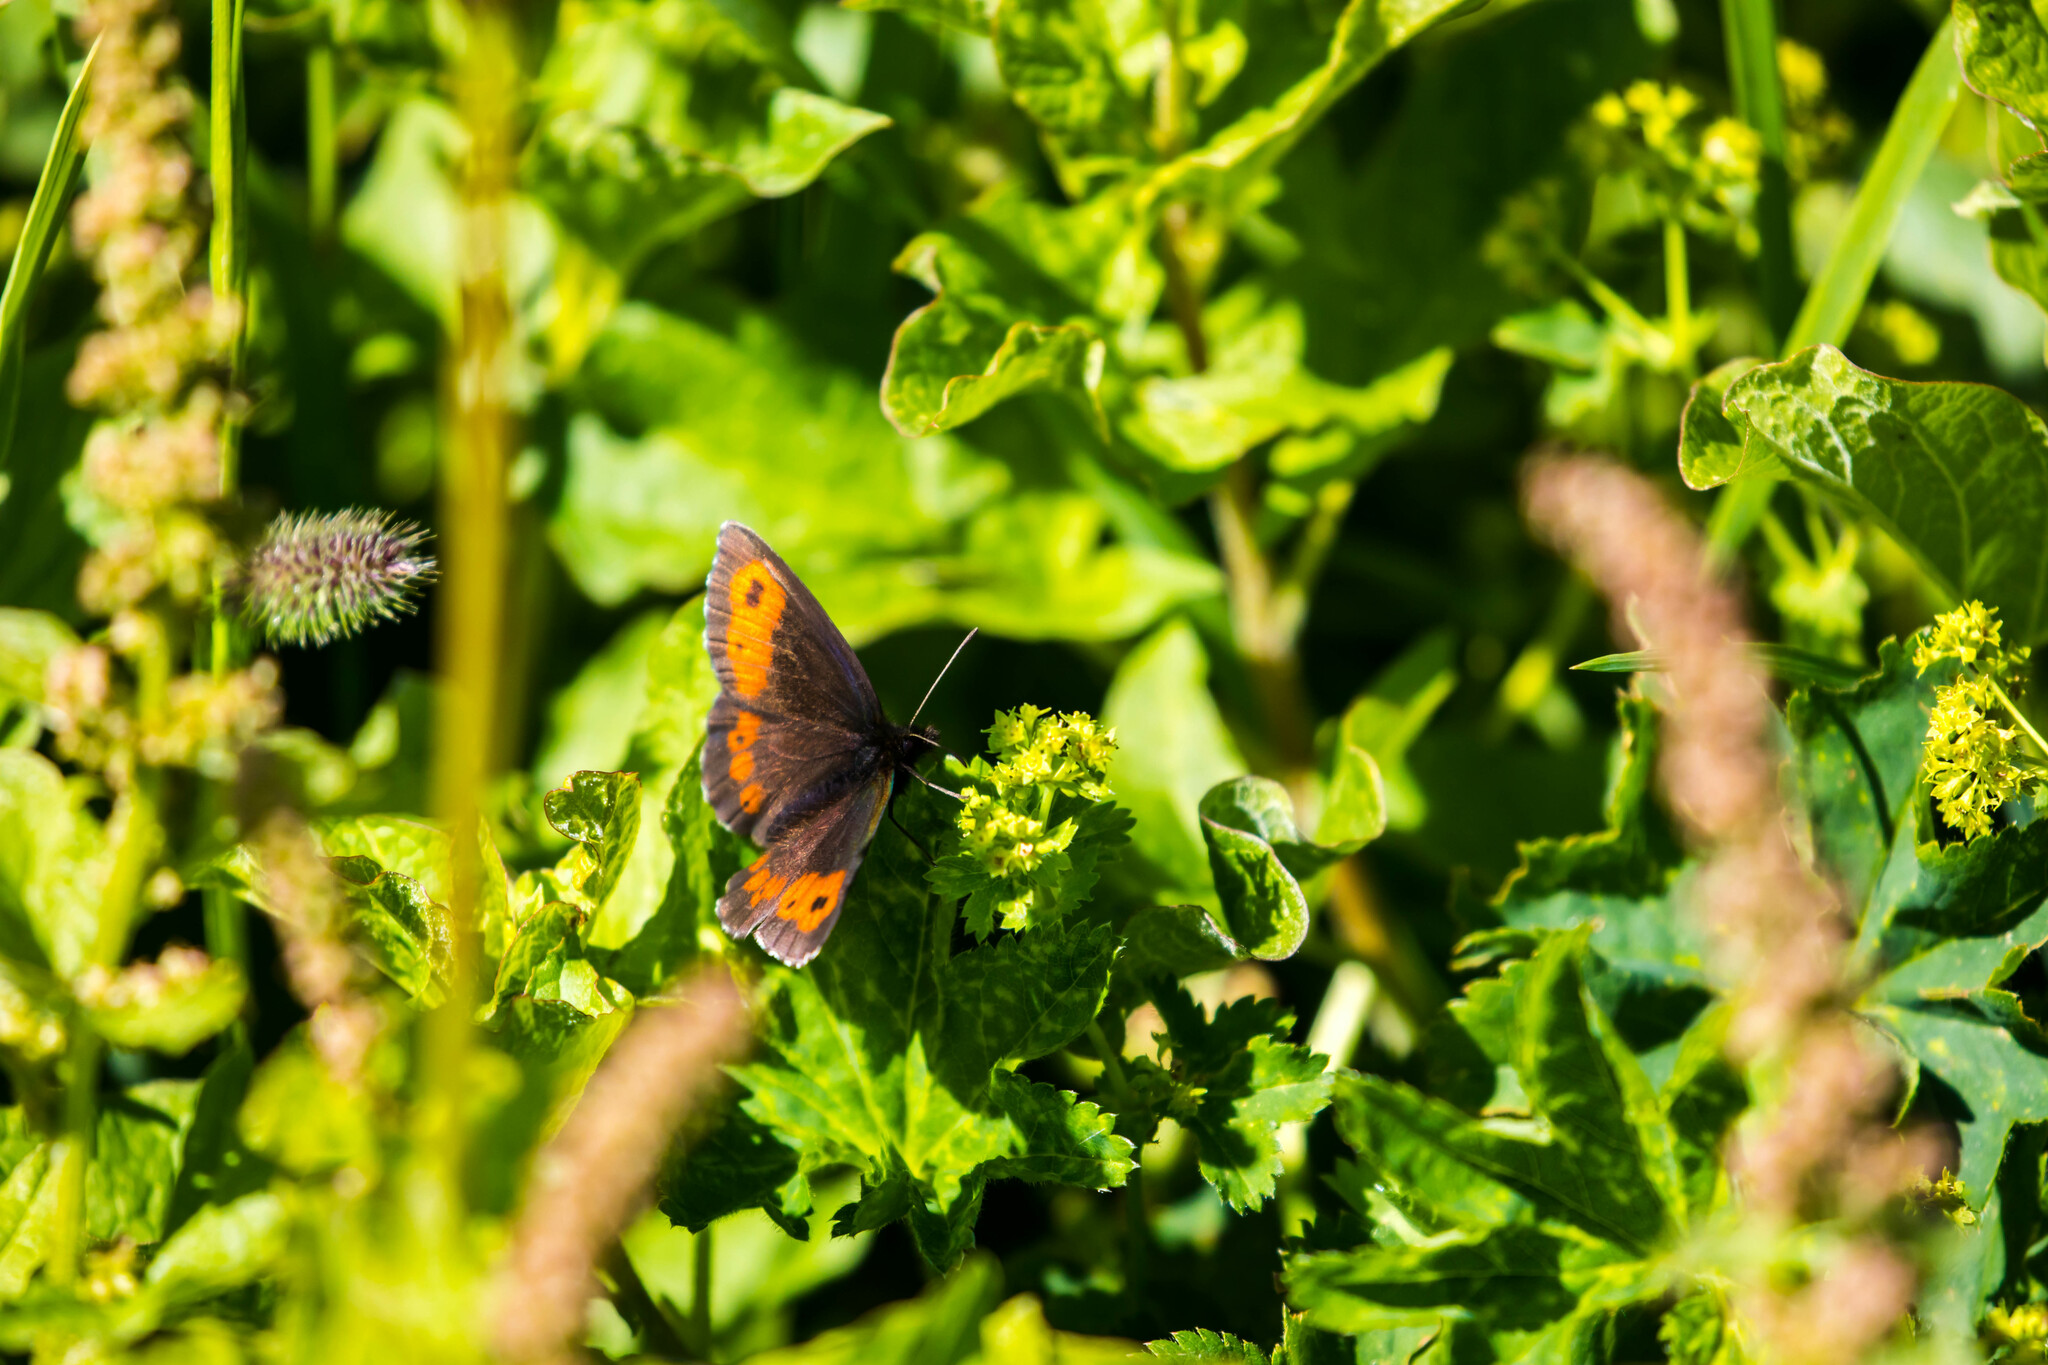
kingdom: Animalia
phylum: Arthropoda
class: Insecta
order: Lepidoptera
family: Nymphalidae
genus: Erebia
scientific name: Erebia euryale
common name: Large ringlet
